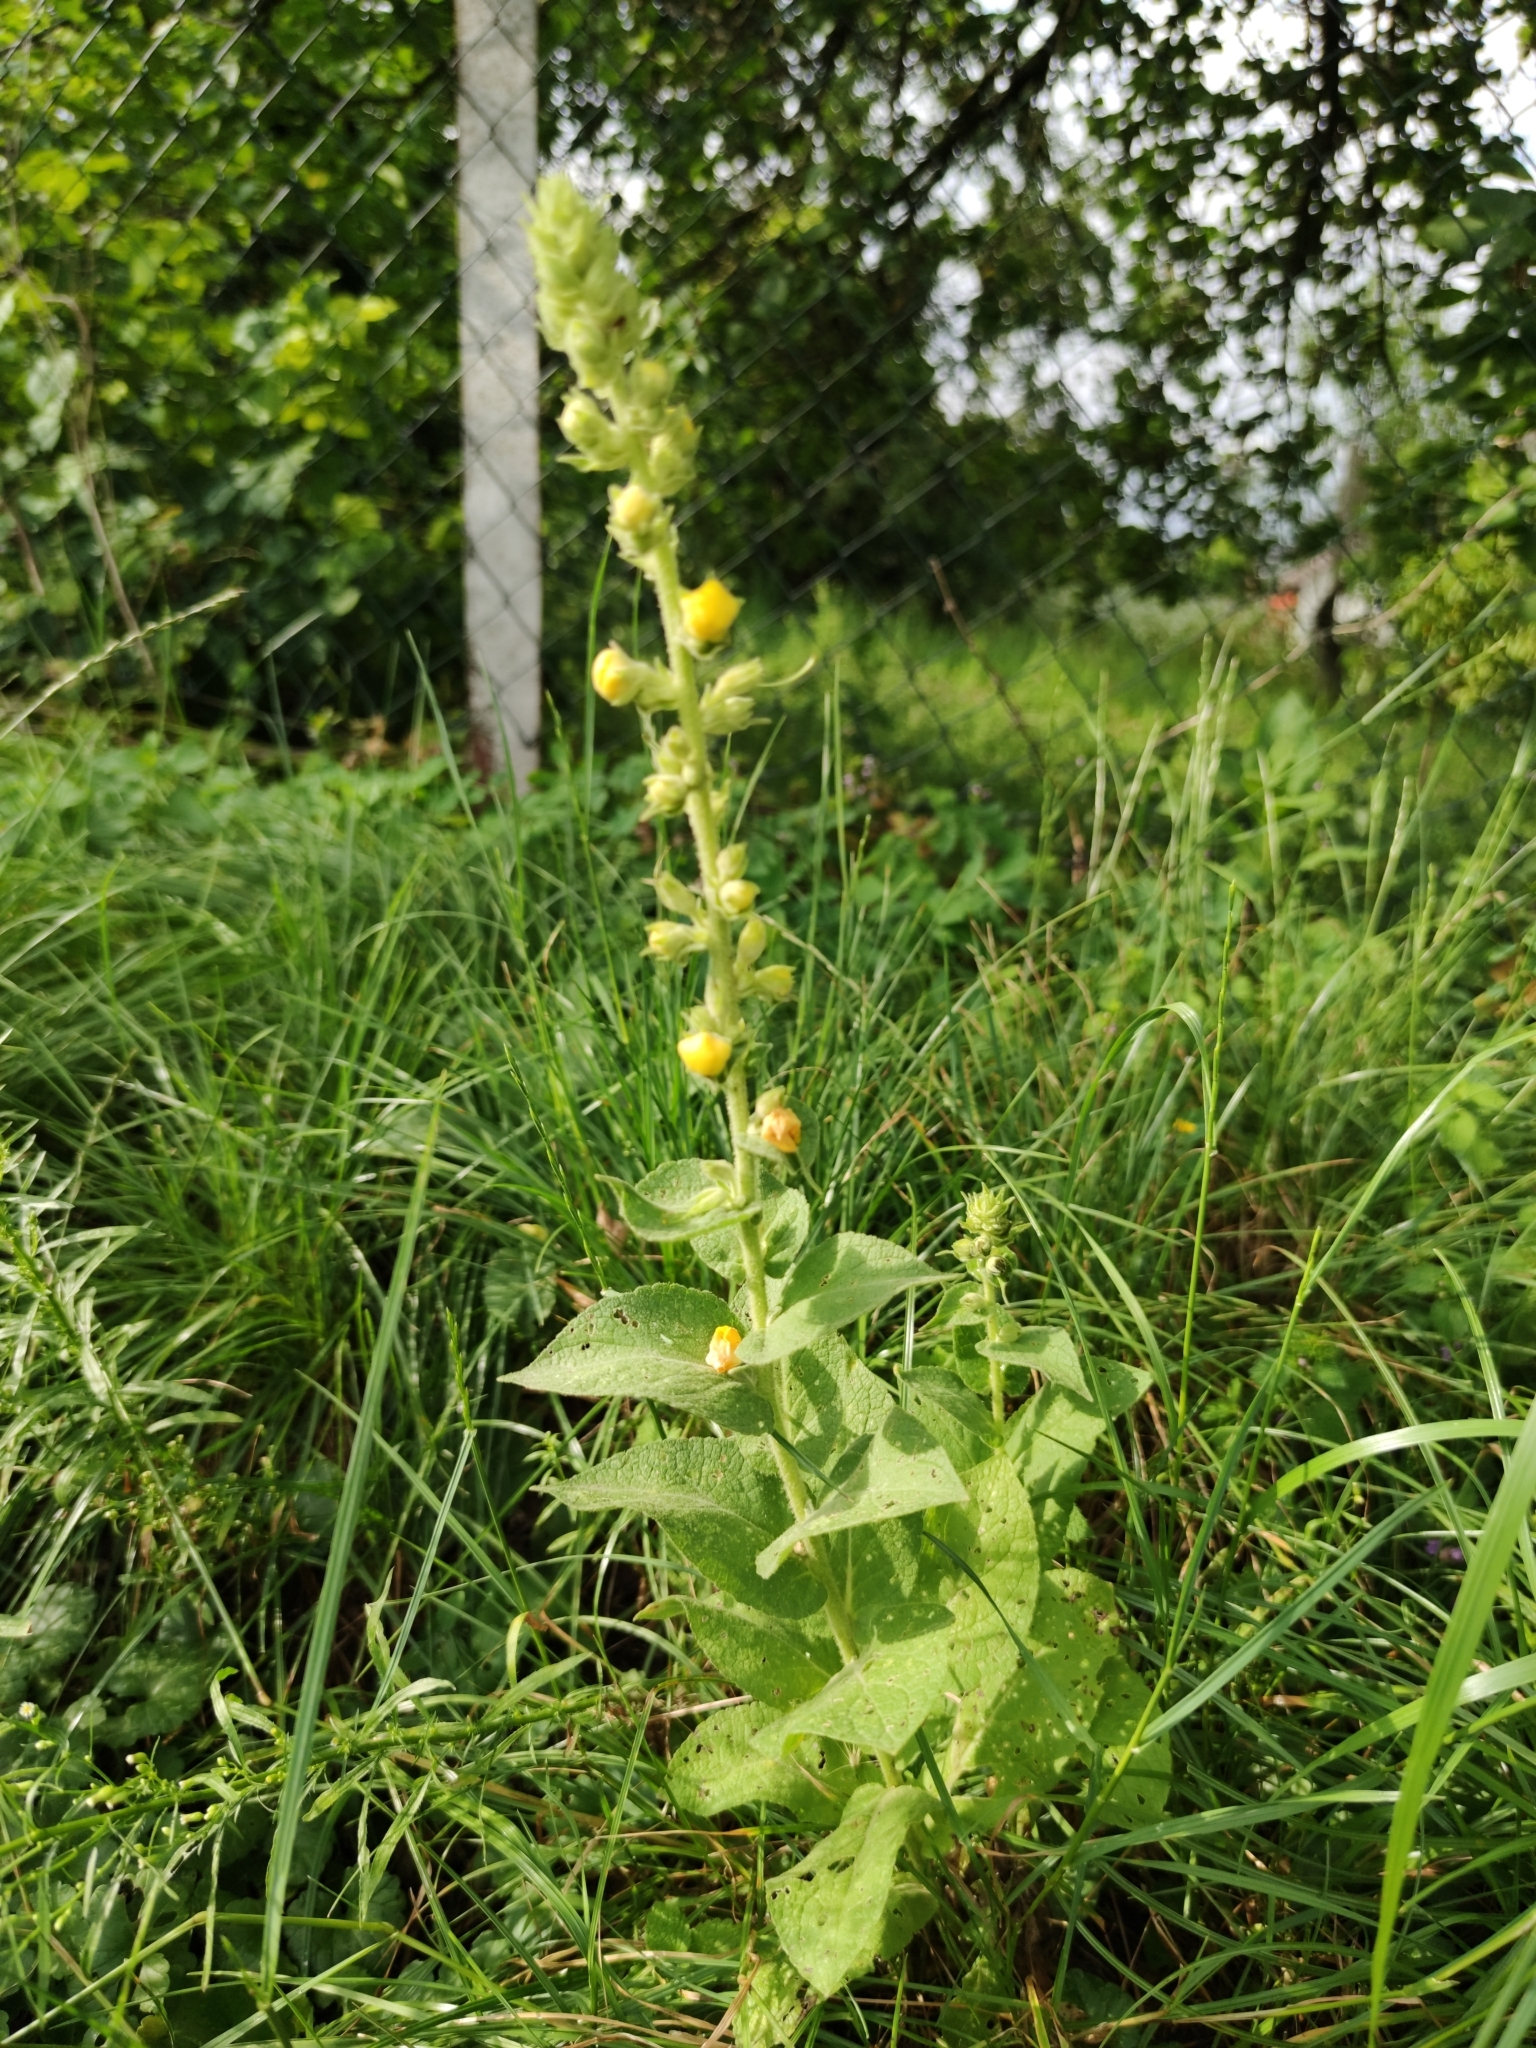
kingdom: Plantae
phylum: Tracheophyta
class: Magnoliopsida
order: Lamiales
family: Scrophulariaceae
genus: Verbascum
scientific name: Verbascum phlomoides
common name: Orange mullein
